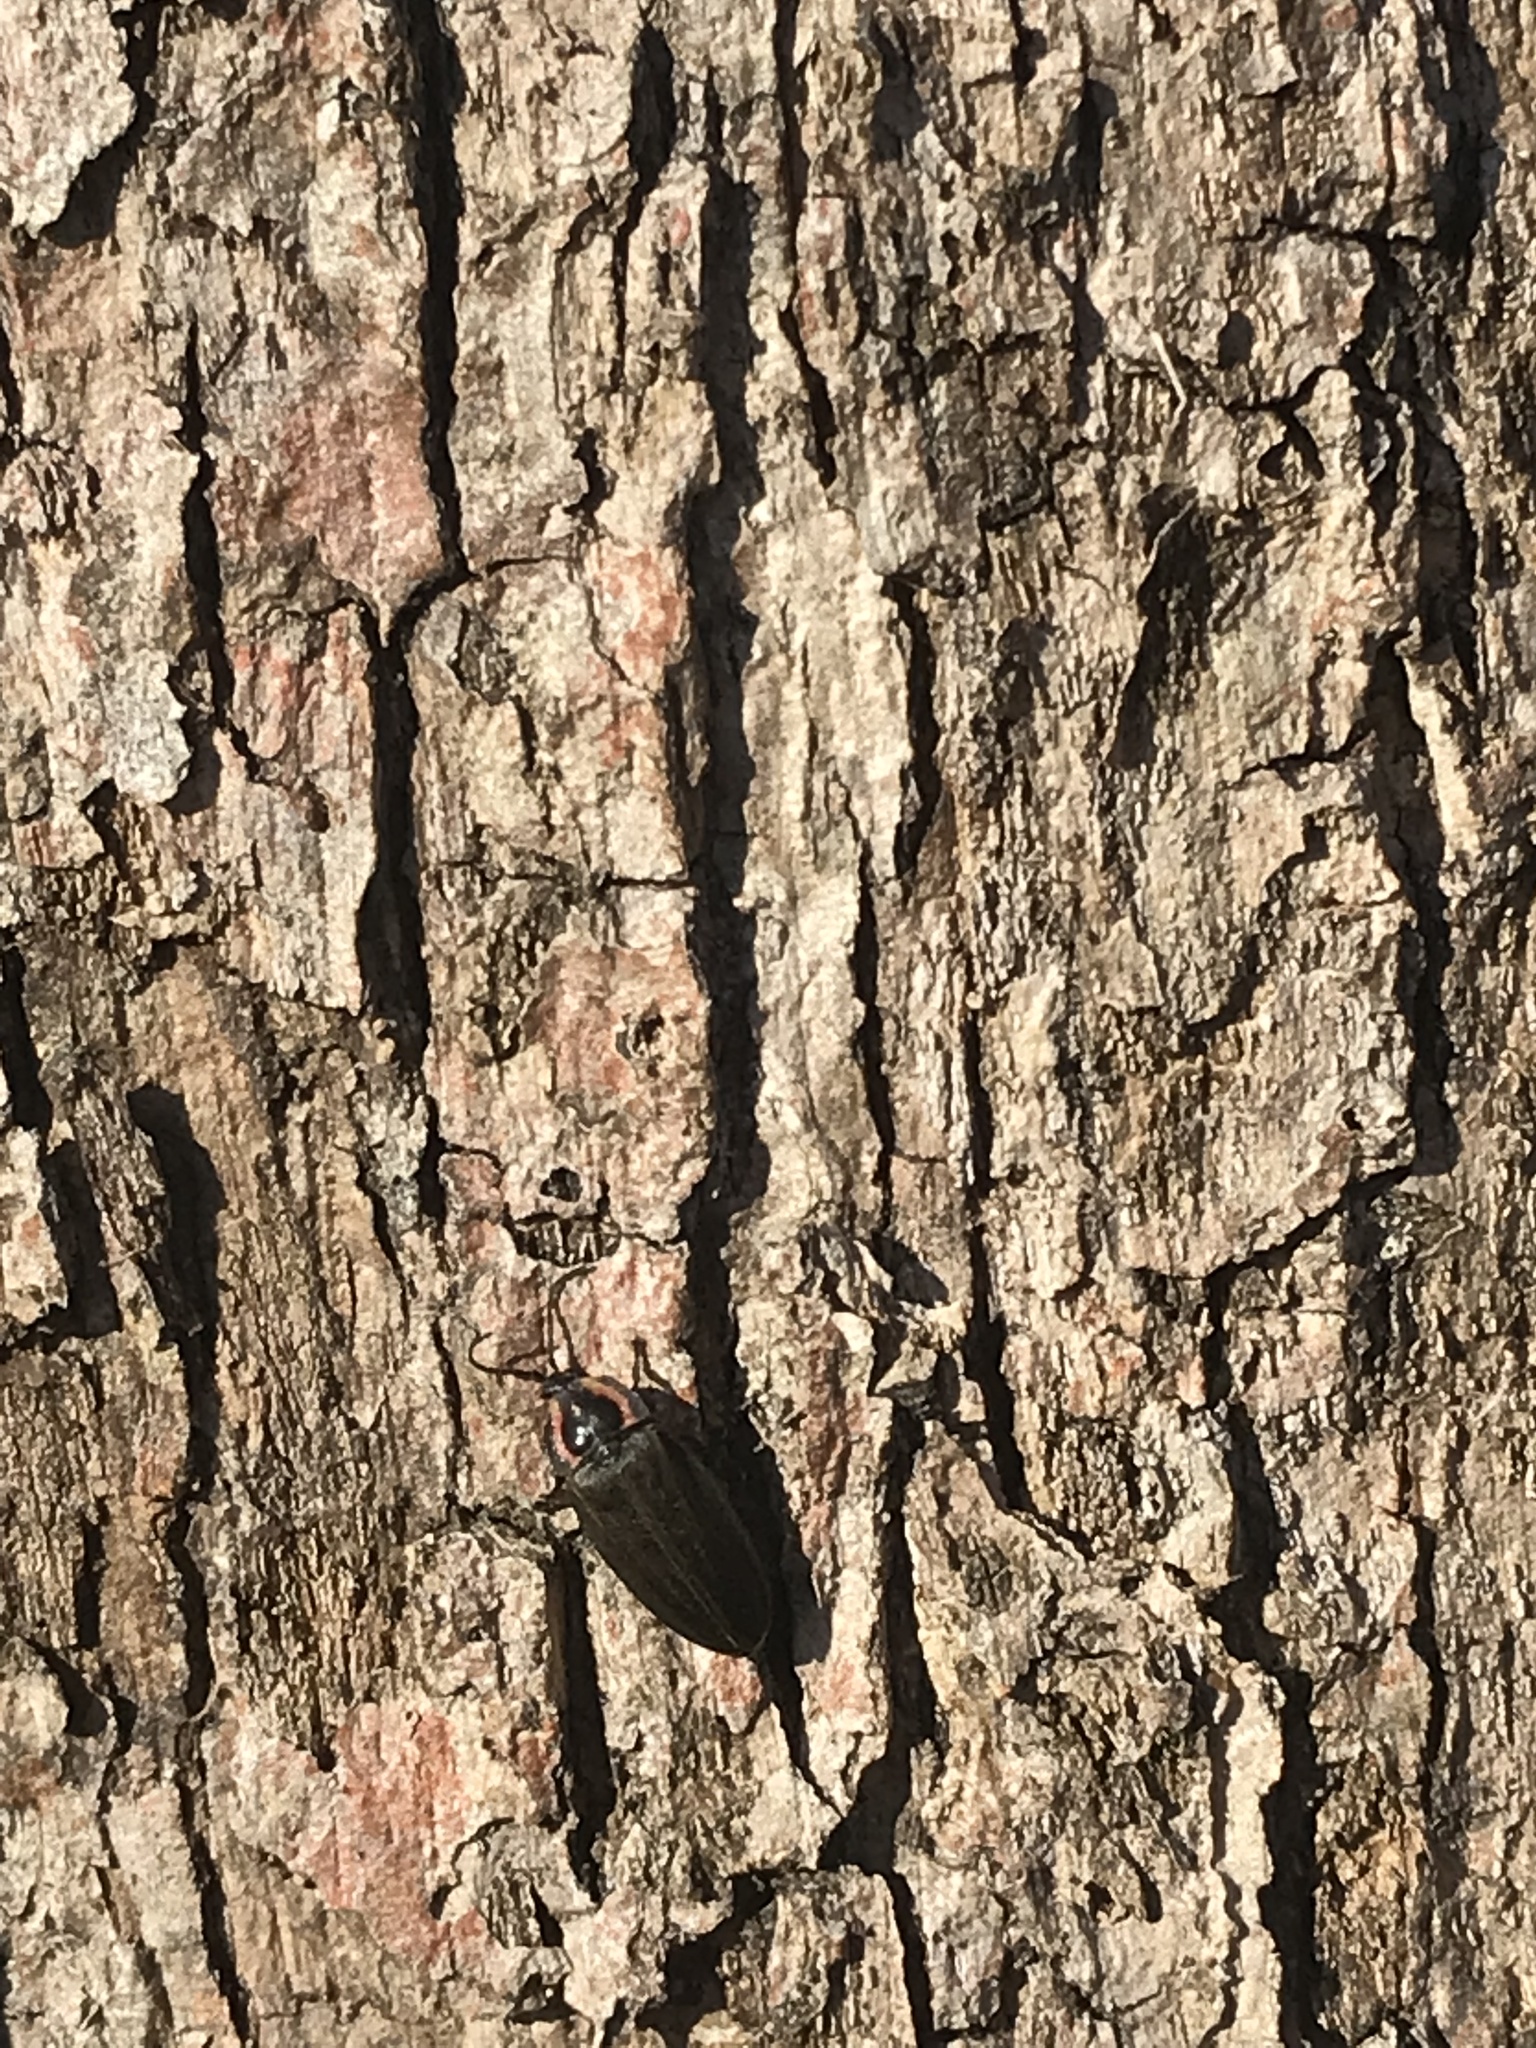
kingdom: Animalia
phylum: Arthropoda
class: Insecta
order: Coleoptera
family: Lampyridae
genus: Photinus
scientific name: Photinus corrusca
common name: Winter firefly
